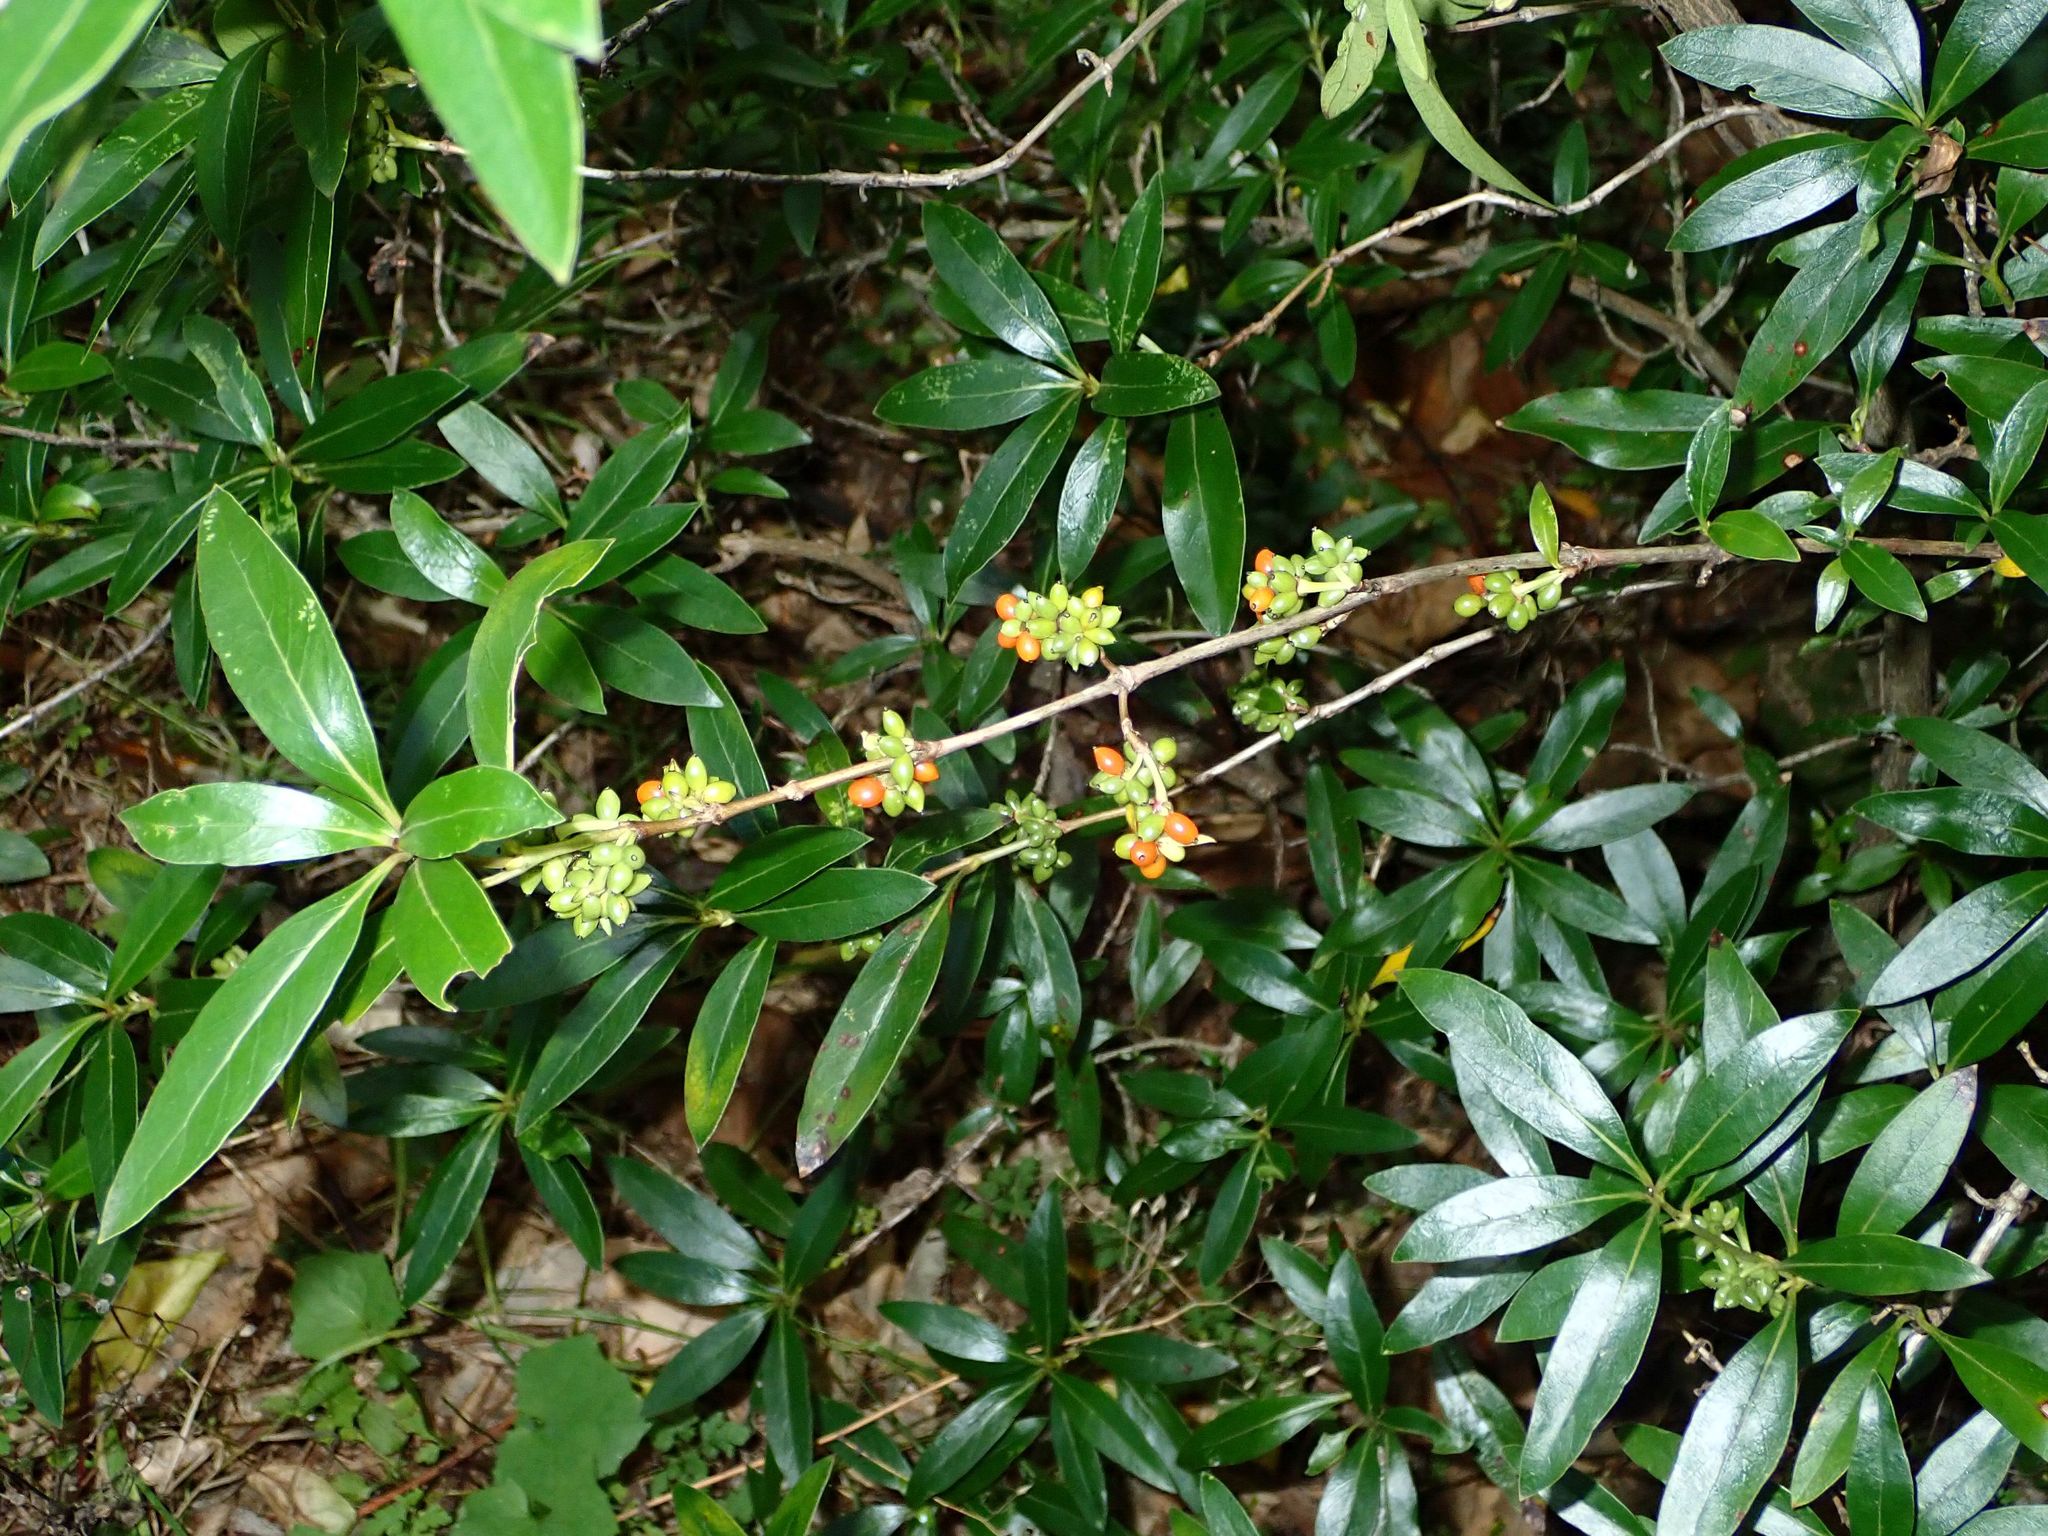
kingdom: Plantae
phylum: Tracheophyta
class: Magnoliopsida
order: Gentianales
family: Rubiaceae
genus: Coprosma
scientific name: Coprosma cunninghamii
